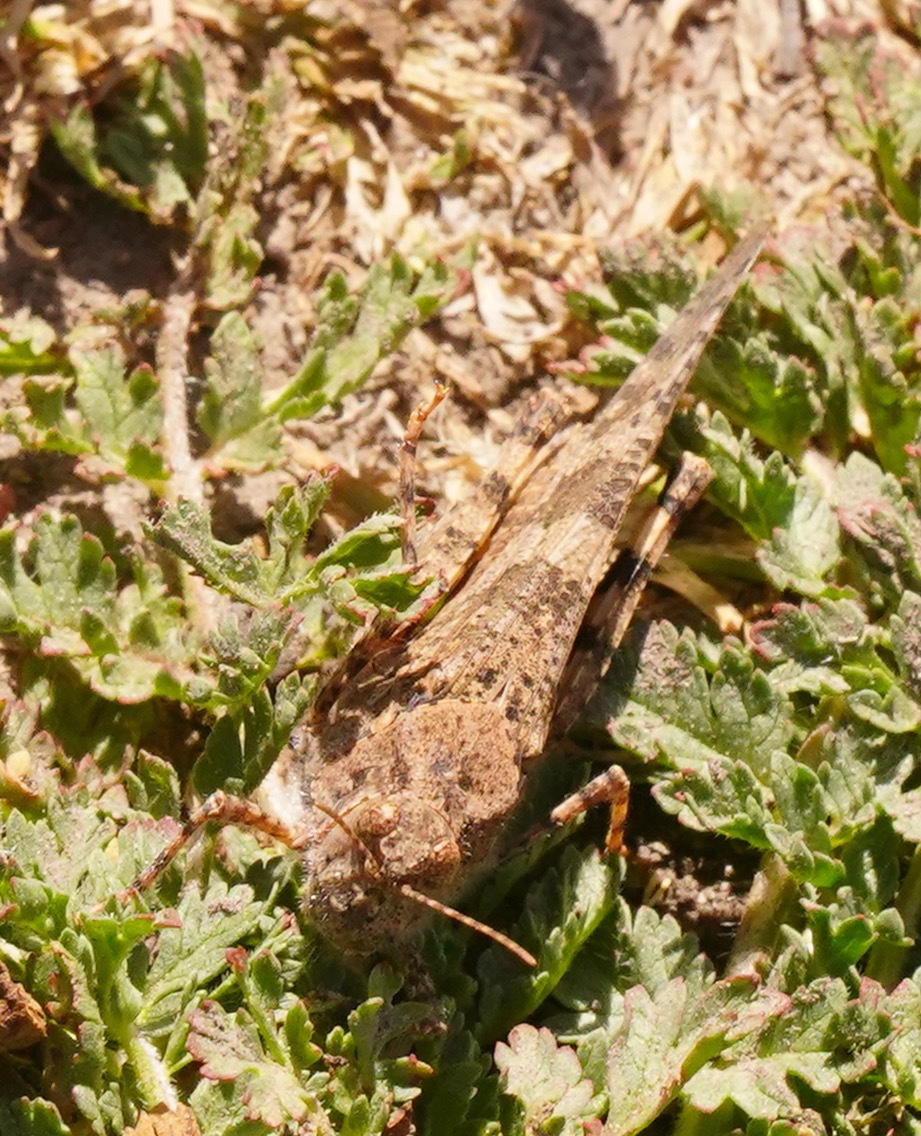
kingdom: Animalia
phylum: Arthropoda
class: Insecta
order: Orthoptera
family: Acrididae
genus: Trimerotropis
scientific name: Trimerotropis pallidipennis
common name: Pallid-winged grasshopper
